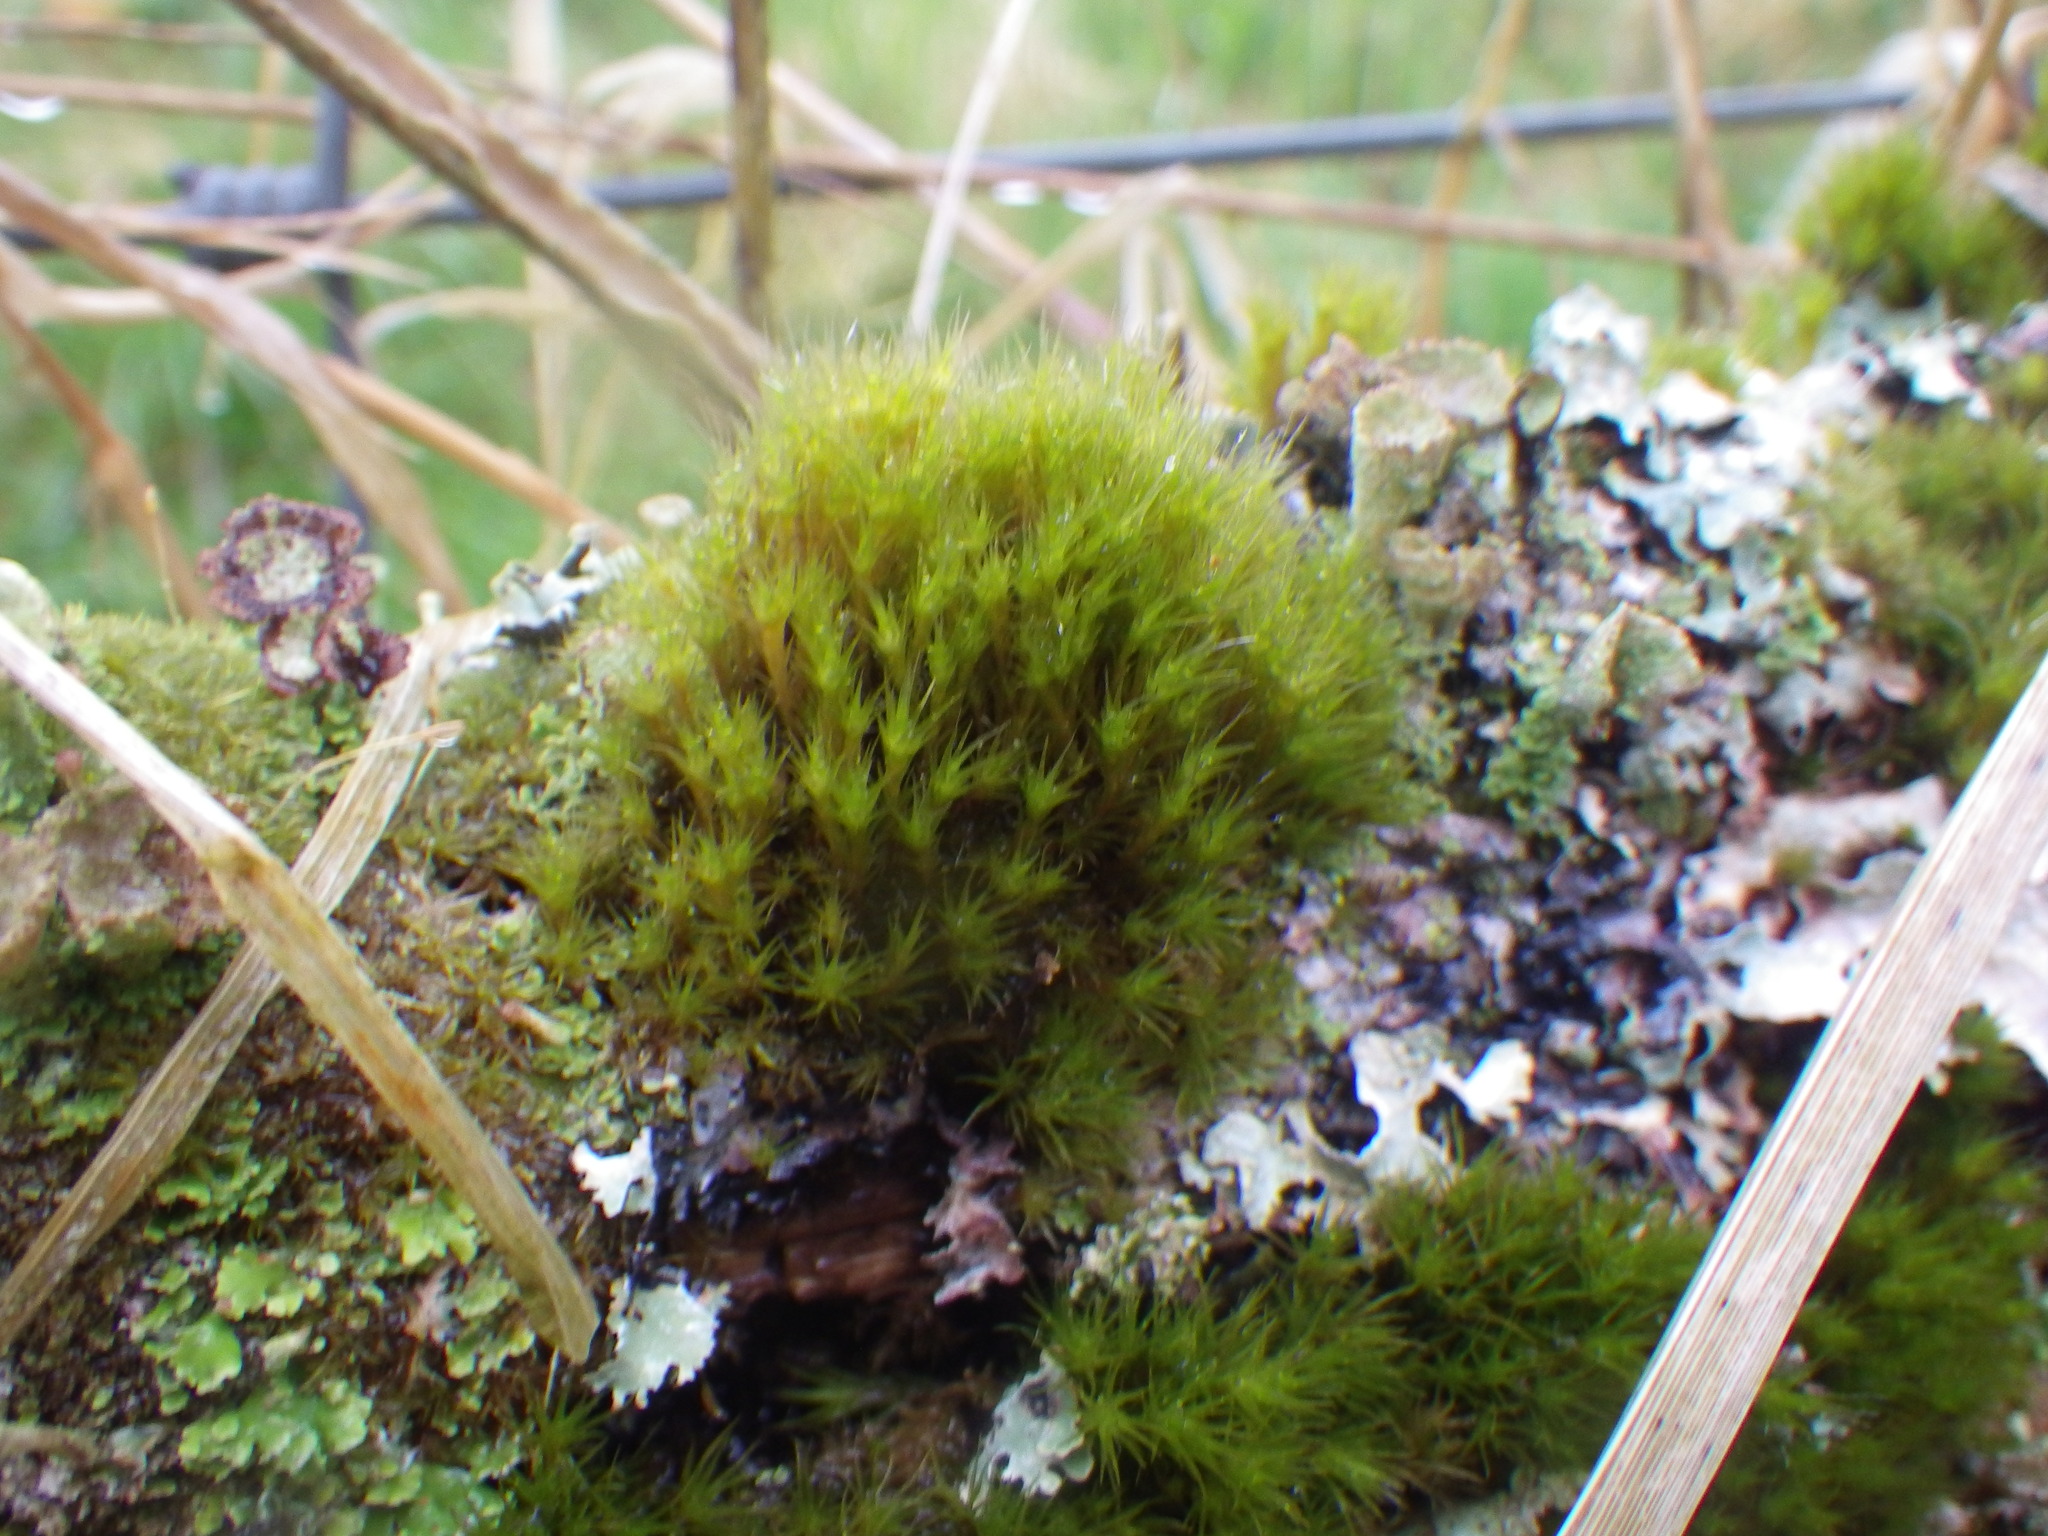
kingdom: Plantae
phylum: Bryophyta
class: Bryopsida
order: Dicranales
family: Leucobryaceae
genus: Campylopus
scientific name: Campylopus introflexus
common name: Heath star moss
